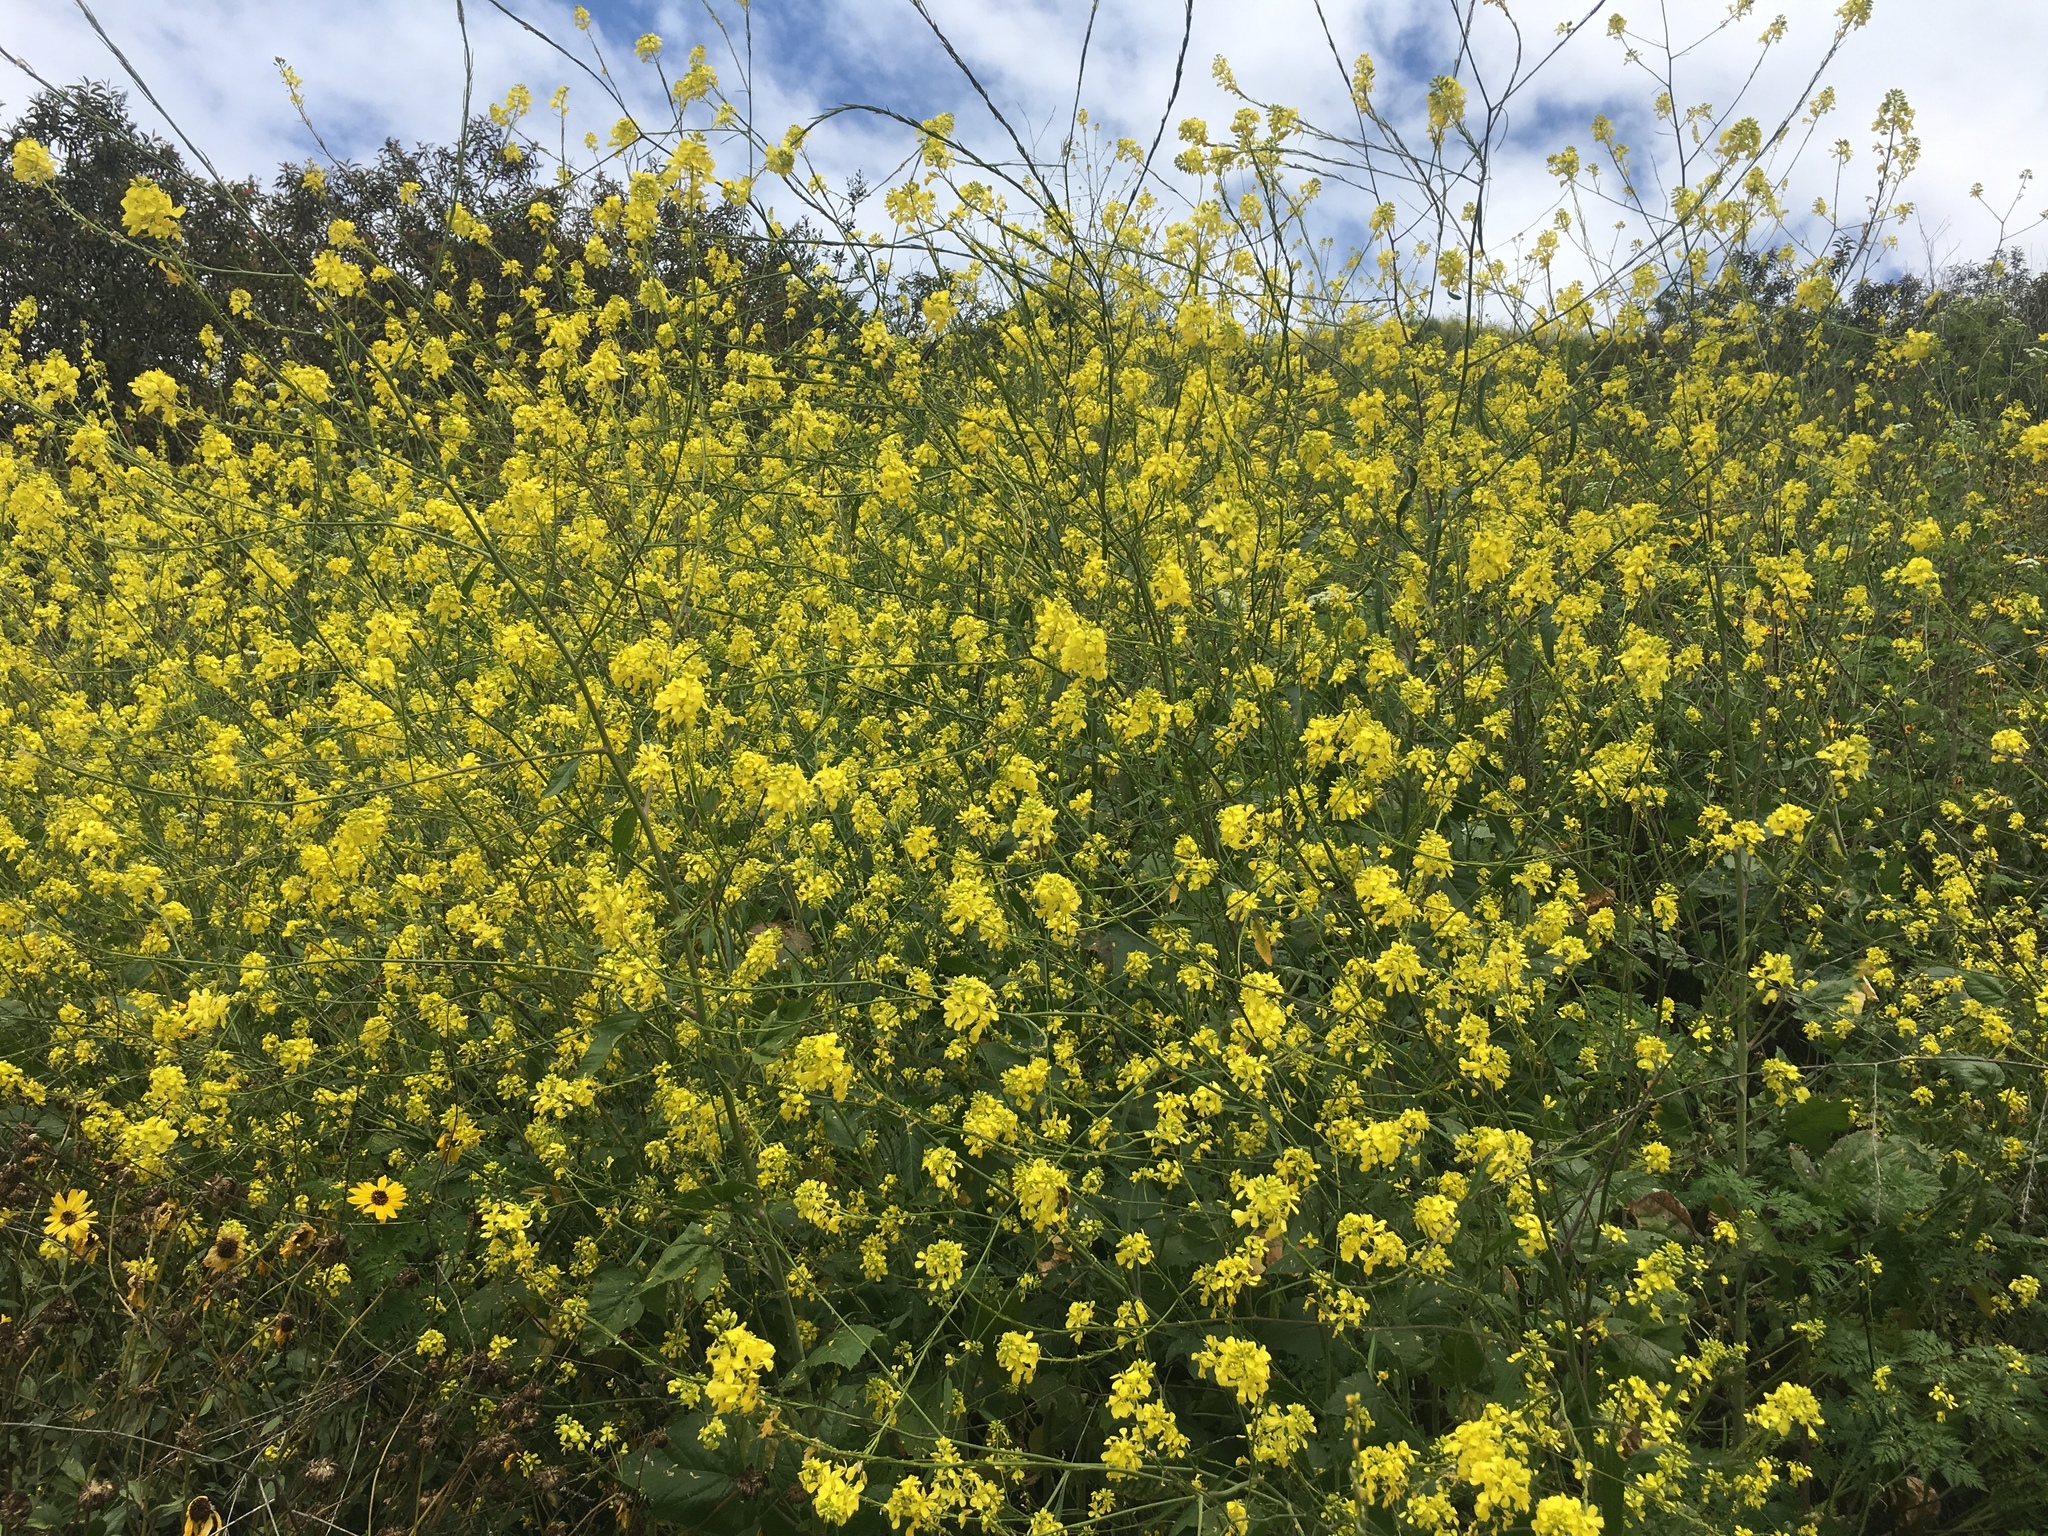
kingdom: Plantae
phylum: Tracheophyta
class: Magnoliopsida
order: Brassicales
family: Brassicaceae
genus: Brassica
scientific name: Brassica nigra
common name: Black mustard
